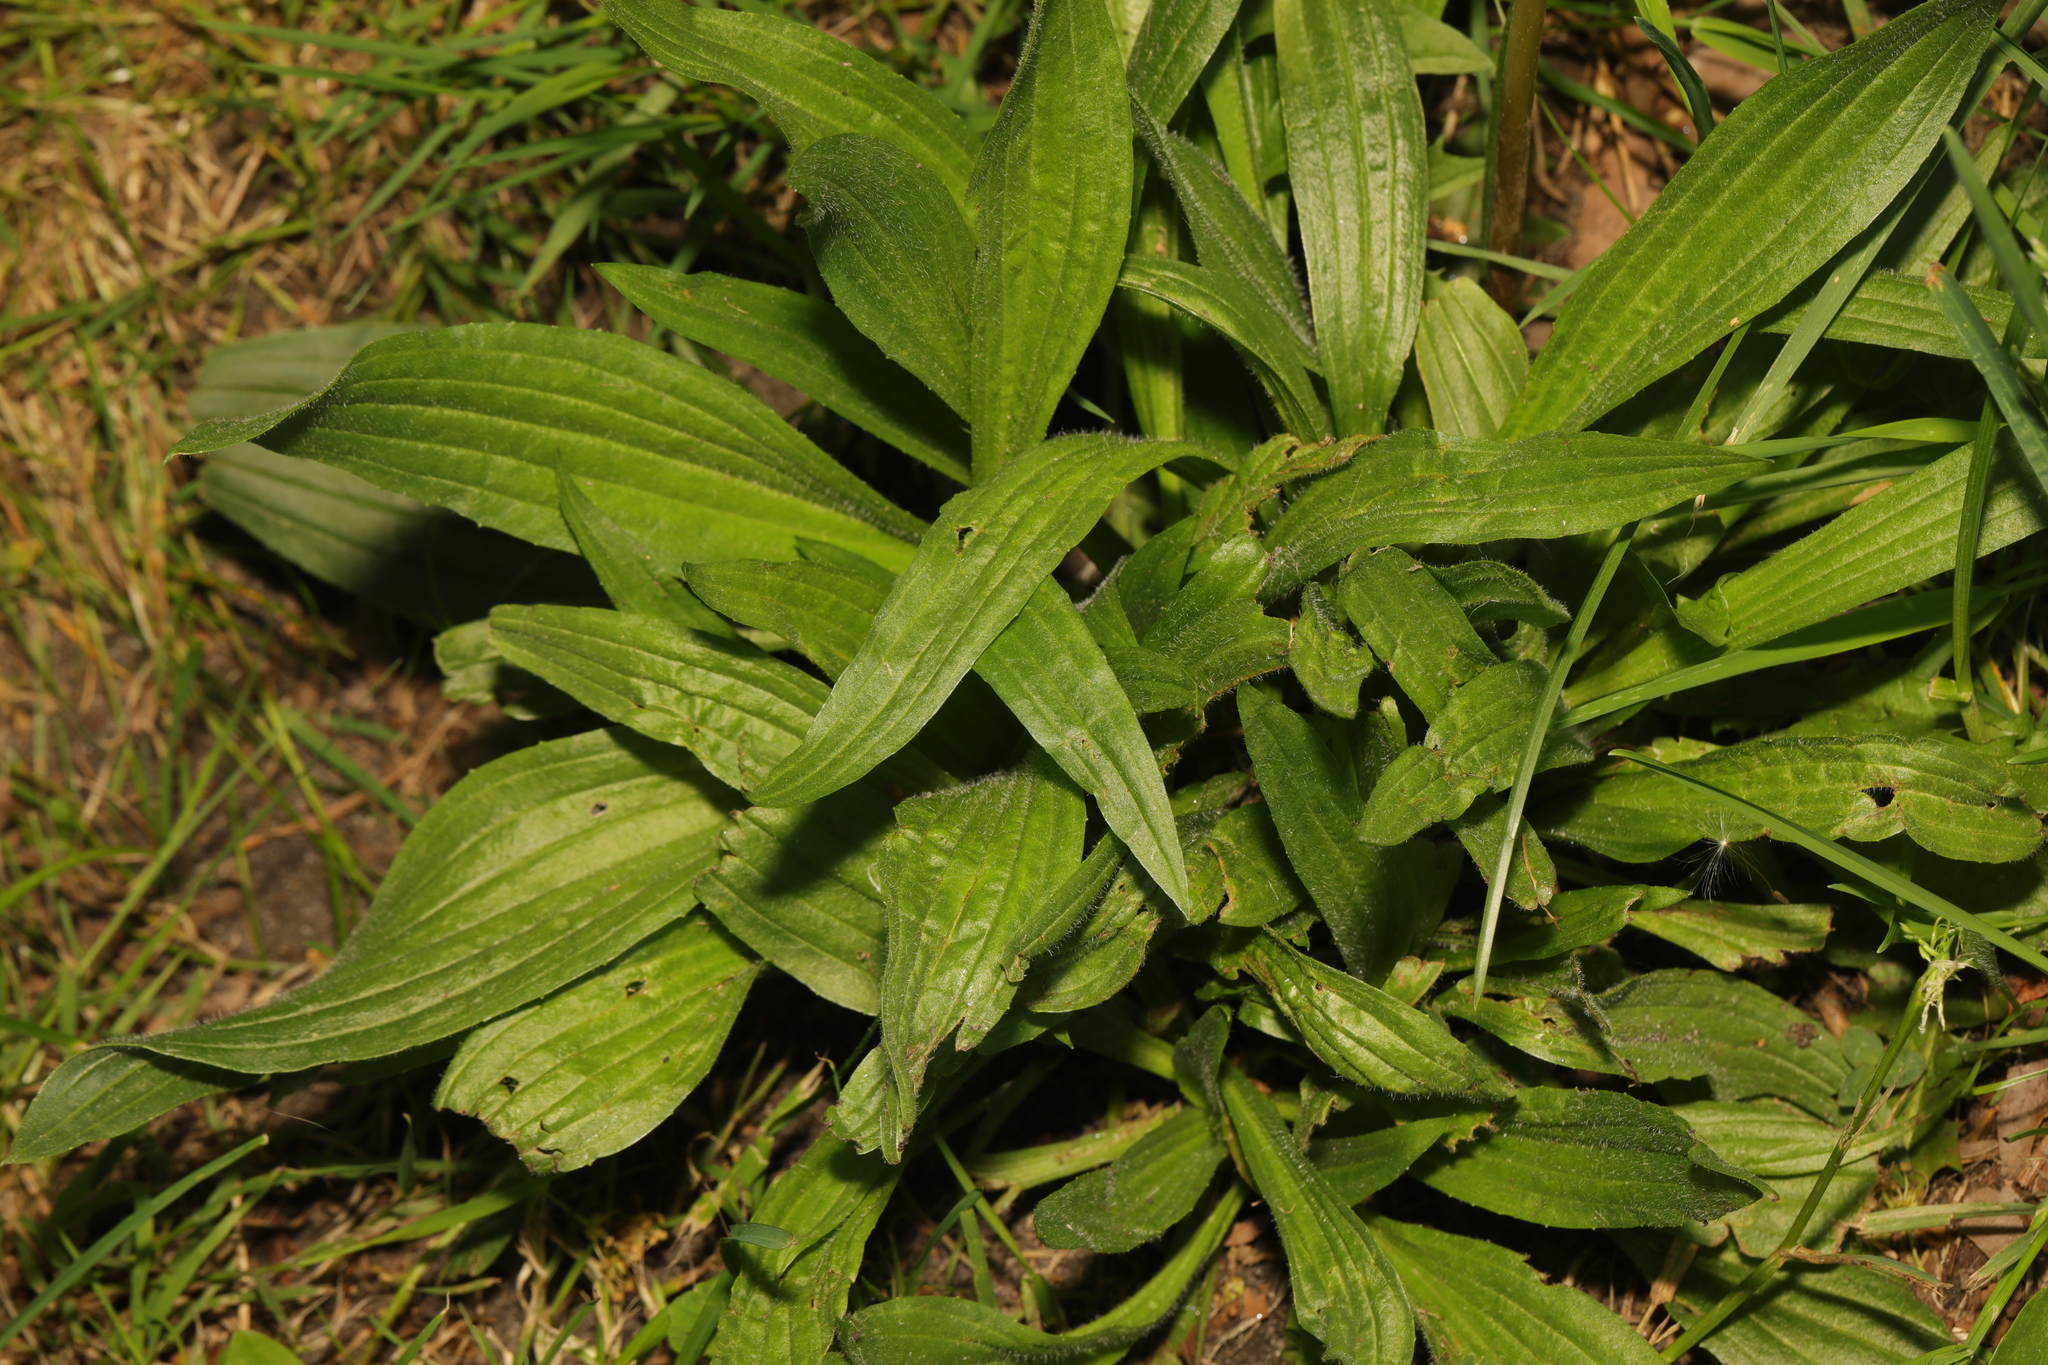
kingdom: Plantae
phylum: Tracheophyta
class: Magnoliopsida
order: Lamiales
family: Plantaginaceae
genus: Plantago
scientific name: Plantago lanceolata
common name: Ribwort plantain
